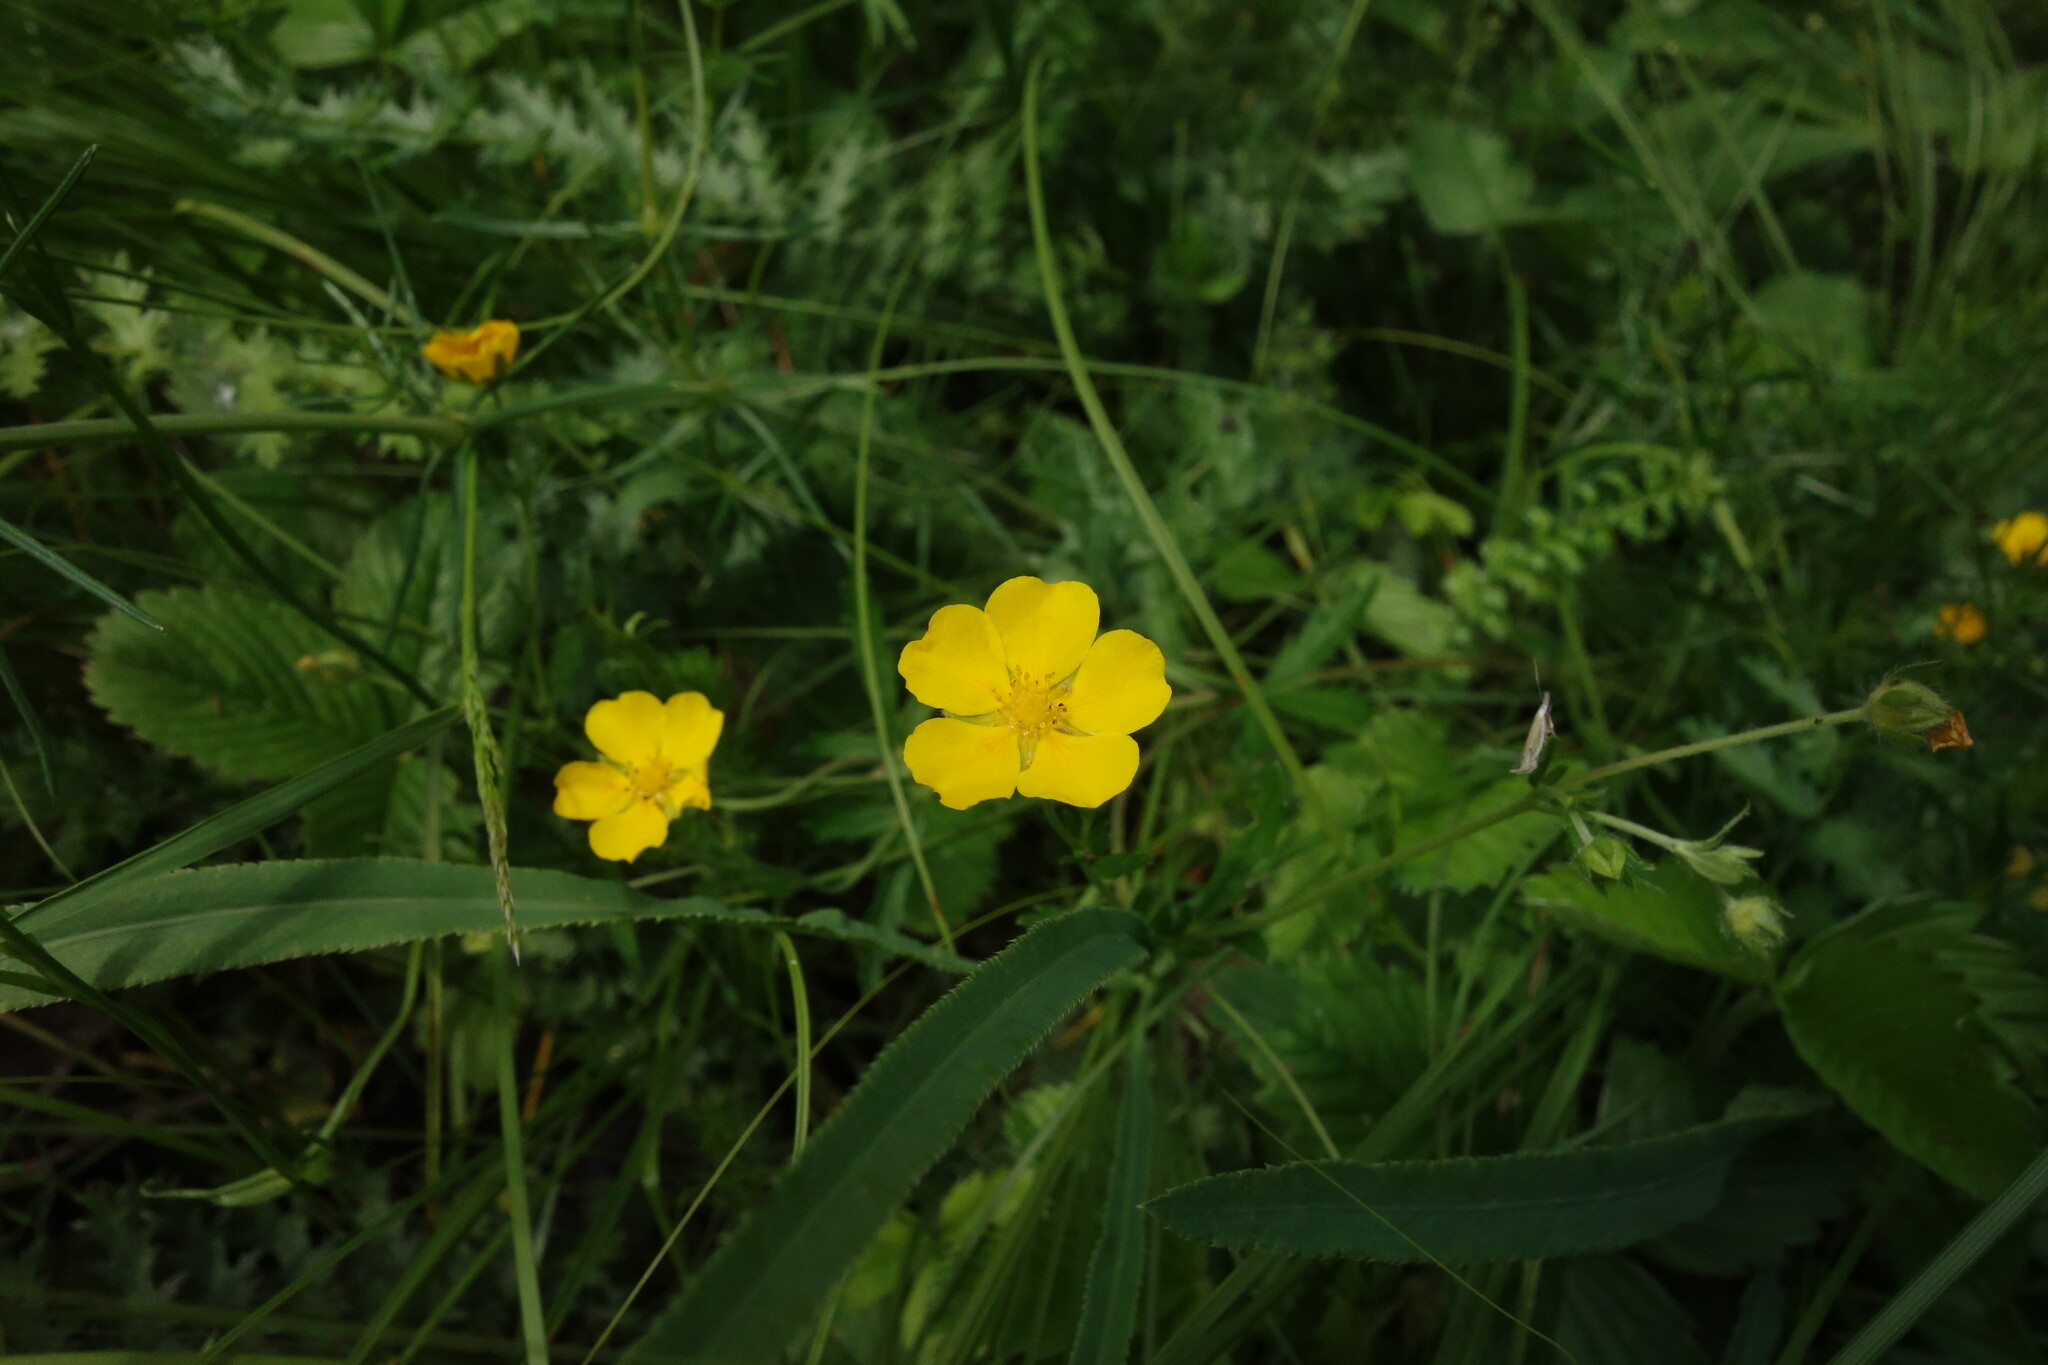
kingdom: Plantae
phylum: Tracheophyta
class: Magnoliopsida
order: Rosales
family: Rosaceae
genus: Potentilla
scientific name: Potentilla thuringiaca
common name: European cinquefoil
